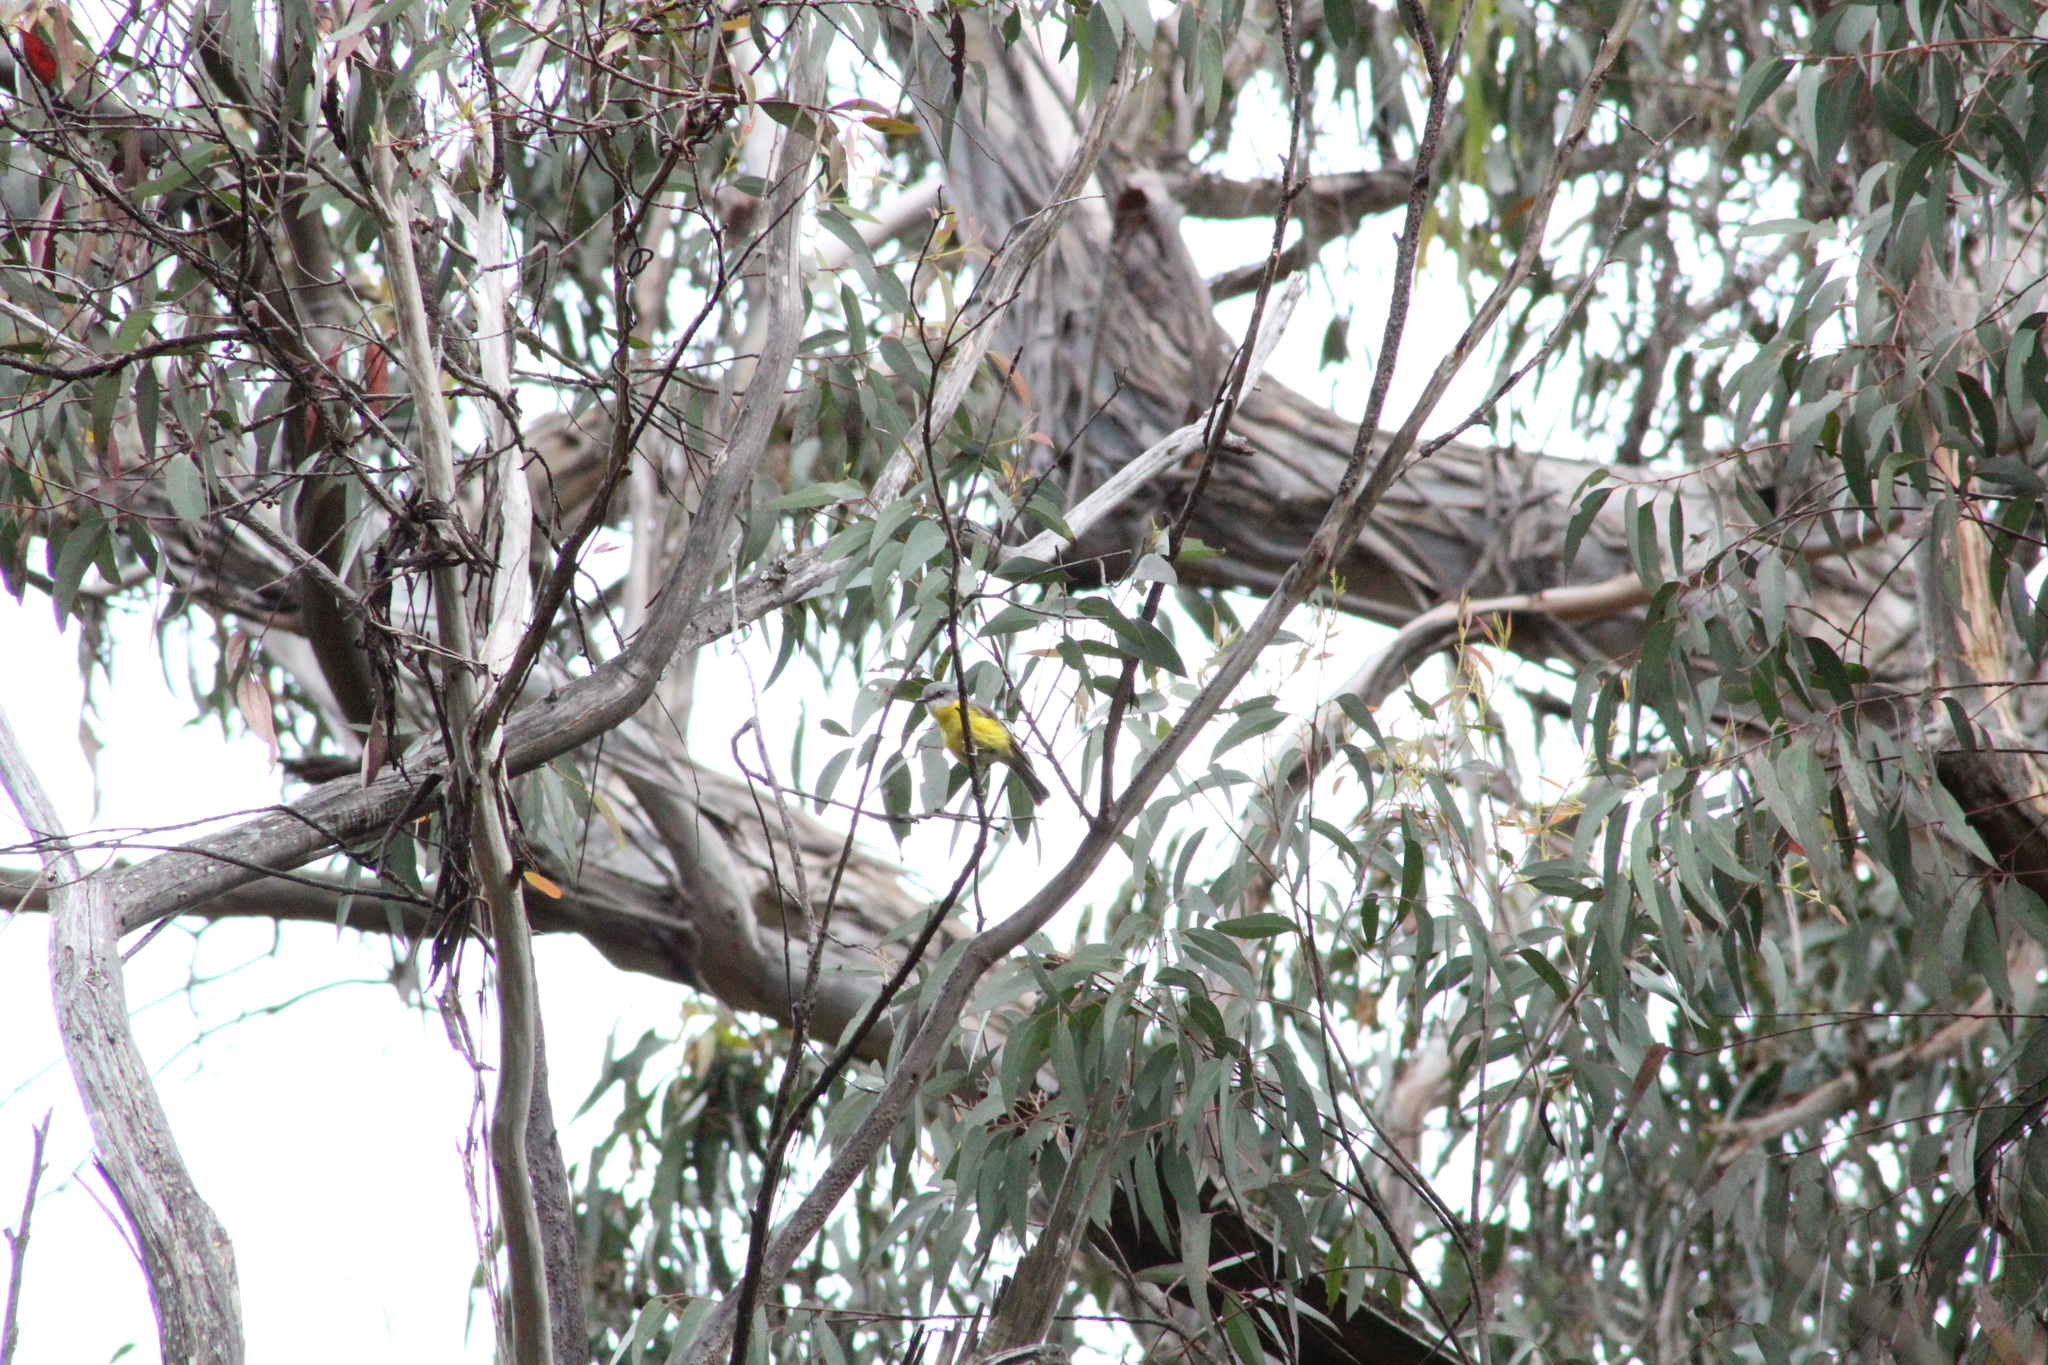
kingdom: Animalia
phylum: Chordata
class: Aves
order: Passeriformes
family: Petroicidae
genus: Eopsaltria
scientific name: Eopsaltria australis
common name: Eastern yellow robin
